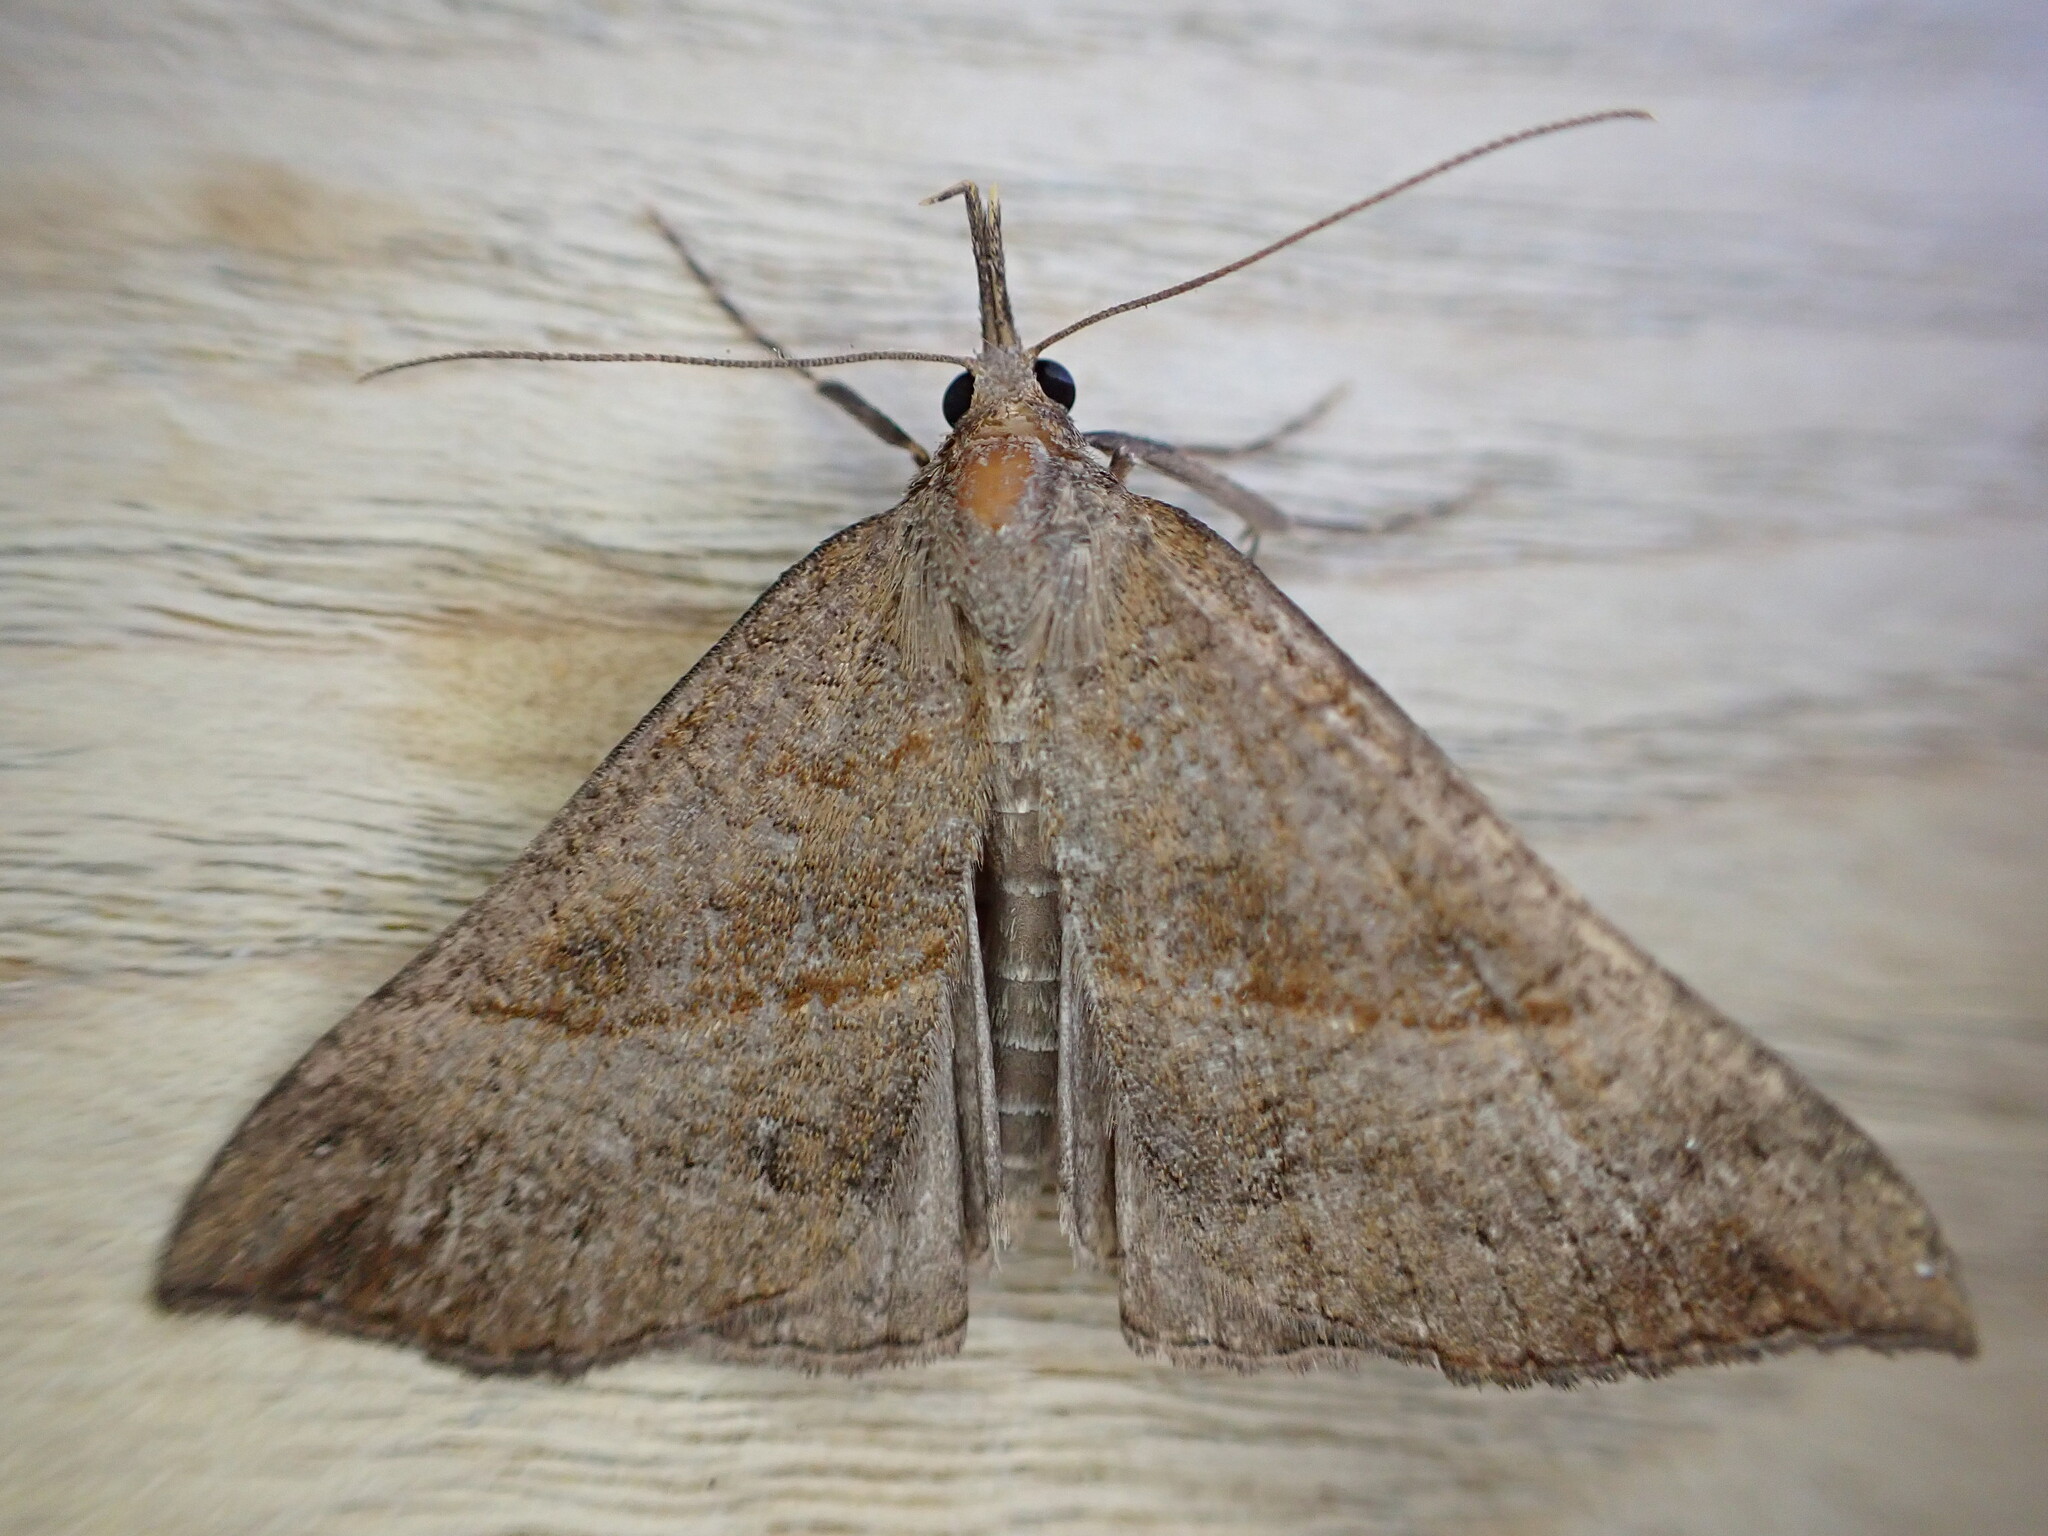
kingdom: Animalia
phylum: Arthropoda
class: Insecta
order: Lepidoptera
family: Erebidae
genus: Hypena
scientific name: Hypena proboscidalis
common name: Snout
